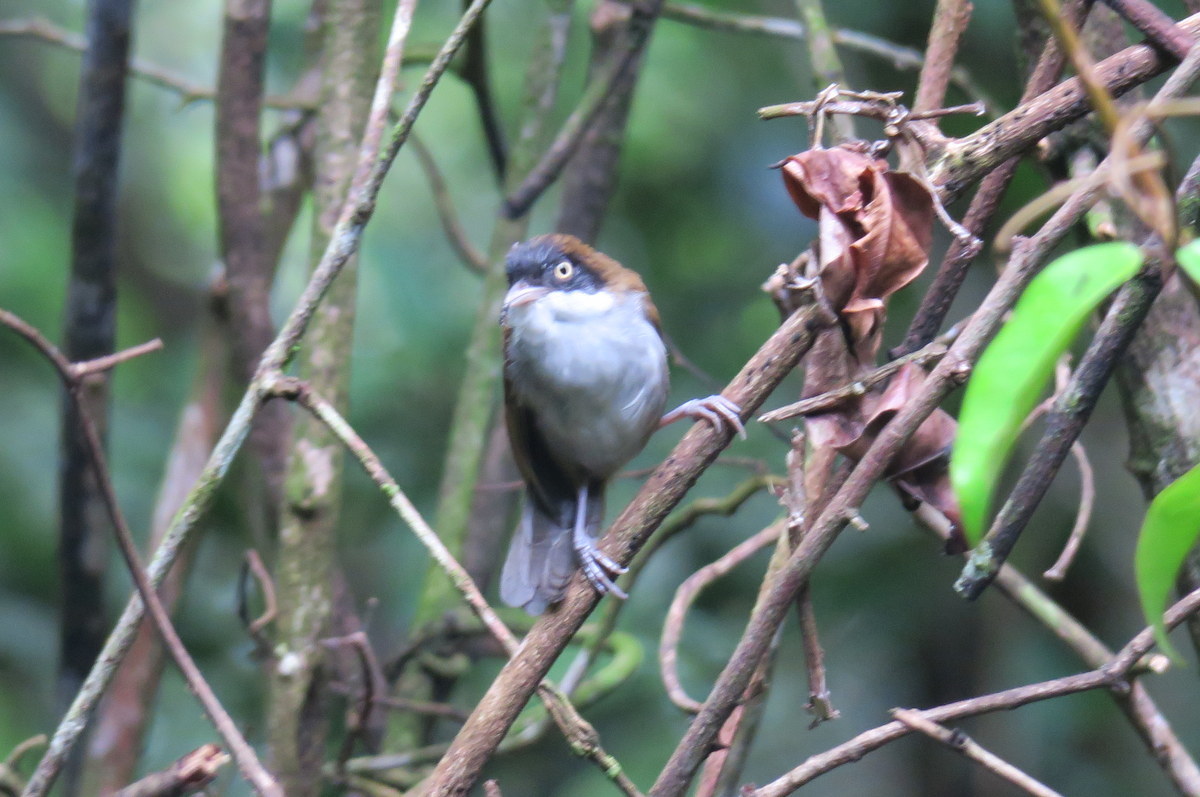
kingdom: Animalia
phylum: Chordata
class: Aves
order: Passeriformes
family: Timaliidae
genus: Rhopocichla
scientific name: Rhopocichla atriceps
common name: Dark-fronted babbler
